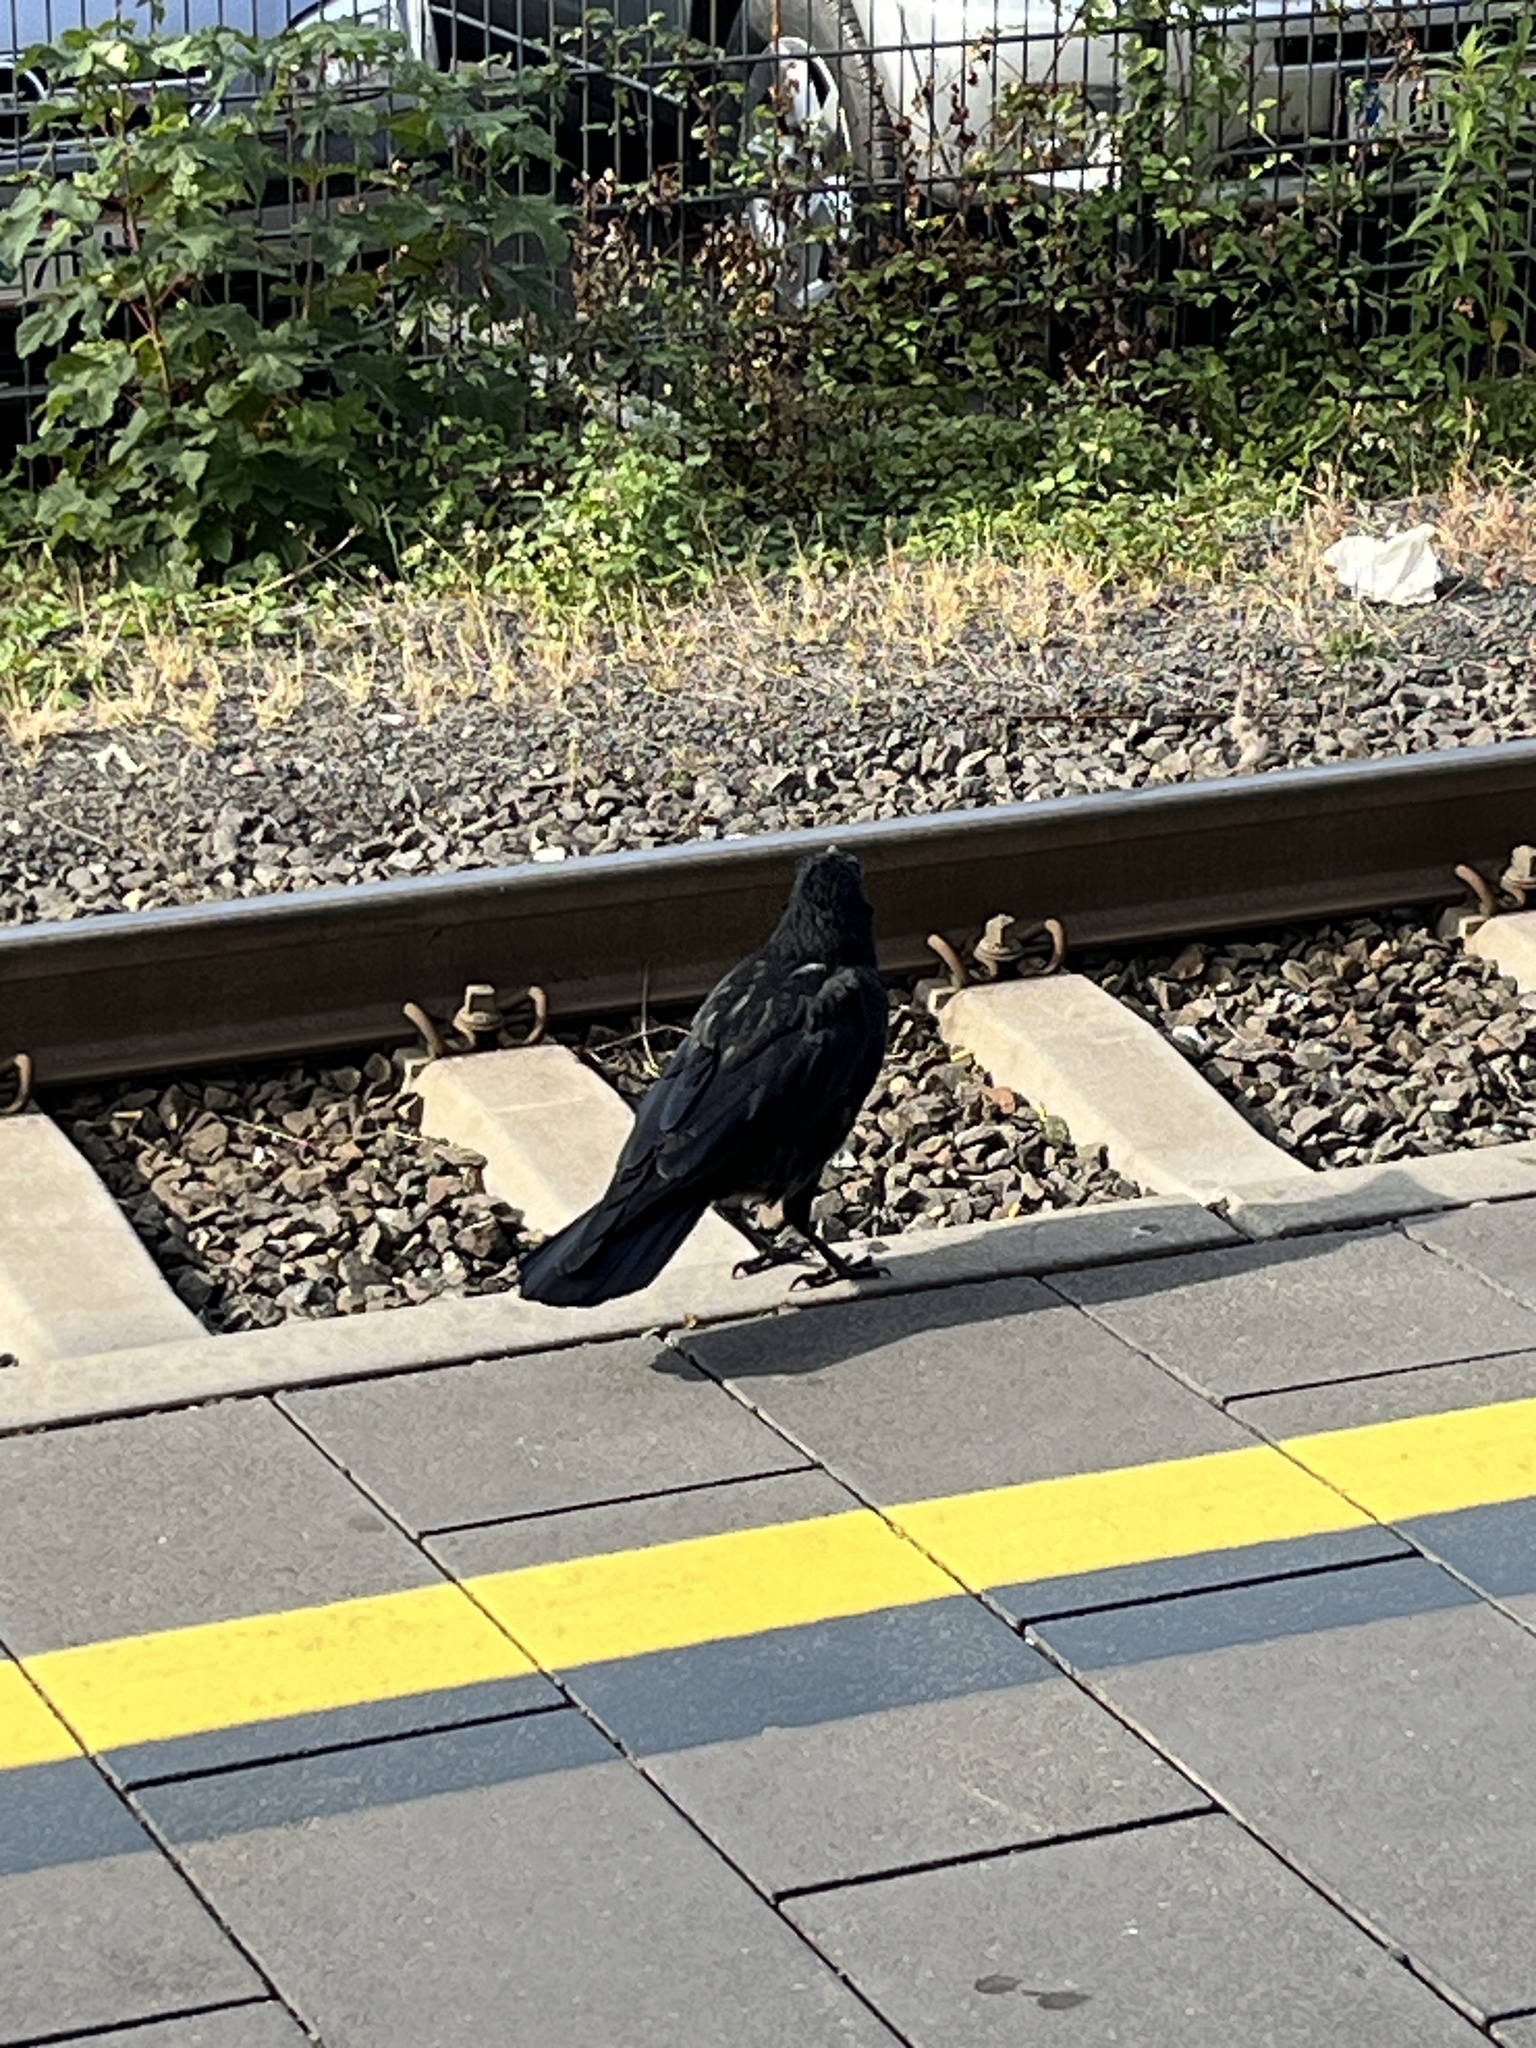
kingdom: Animalia
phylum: Chordata
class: Aves
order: Passeriformes
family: Corvidae
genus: Corvus
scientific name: Corvus
